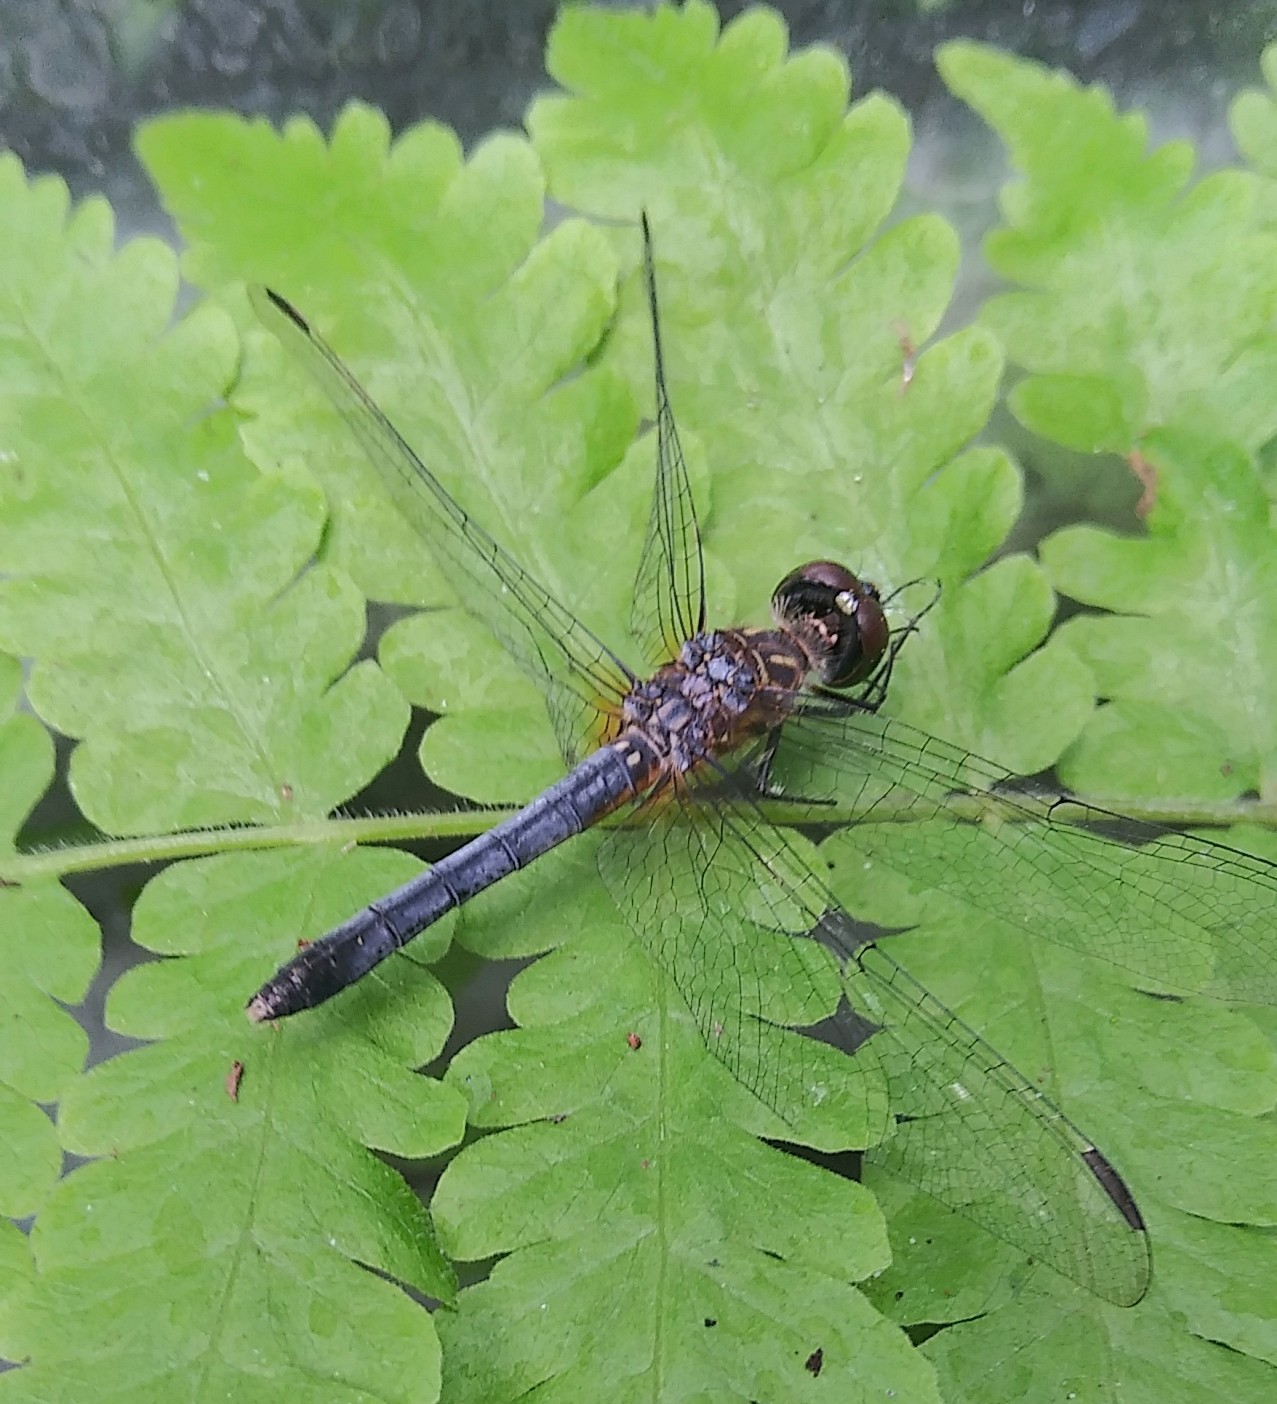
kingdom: Animalia
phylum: Arthropoda
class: Insecta
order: Odonata
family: Libellulidae
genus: Pachydiplax
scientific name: Pachydiplax longipennis
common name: Blue dasher
